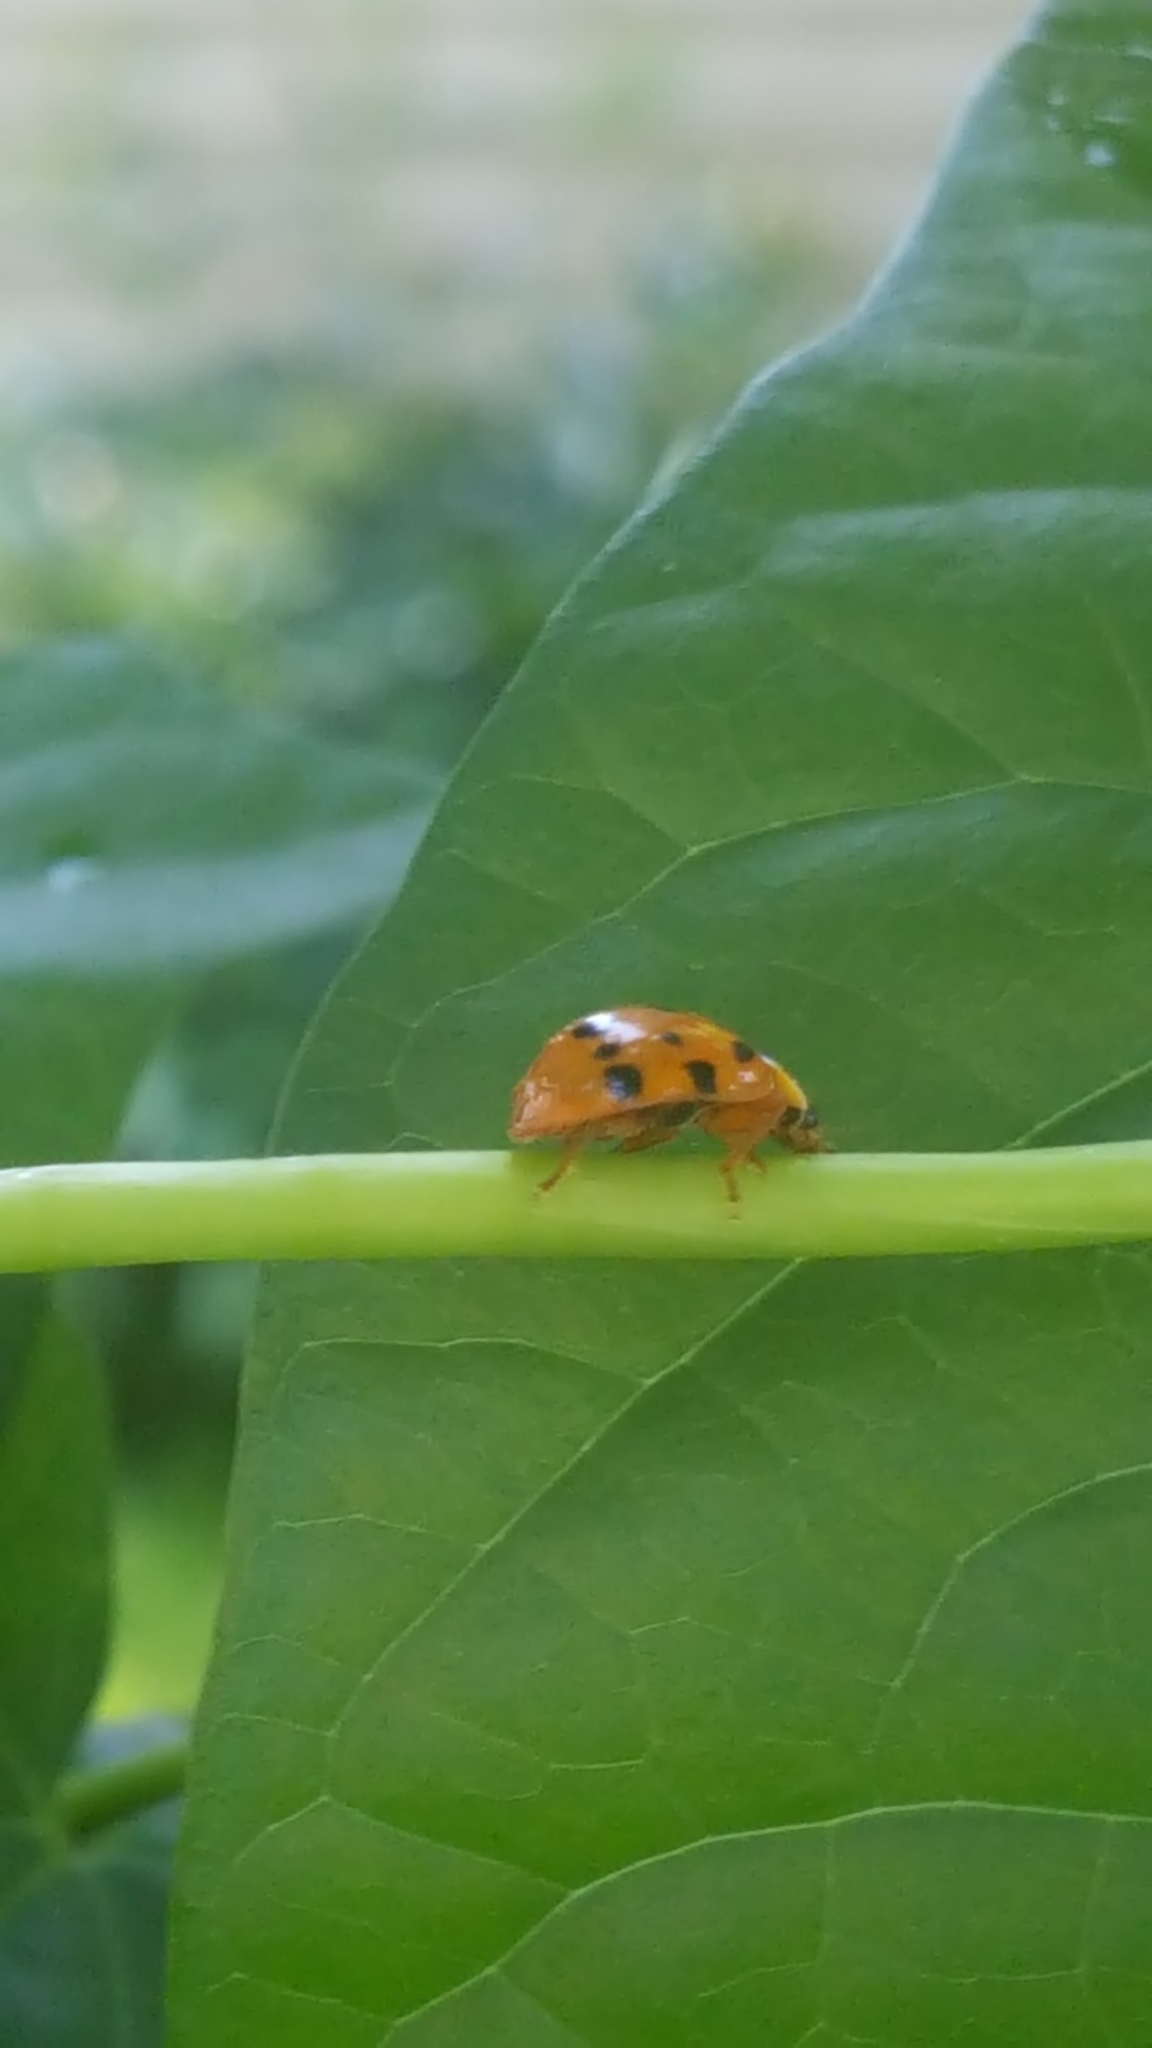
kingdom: Animalia
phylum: Arthropoda
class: Insecta
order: Coleoptera
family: Coccinellidae
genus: Harmonia
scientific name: Harmonia axyridis
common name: Harlequin ladybird
